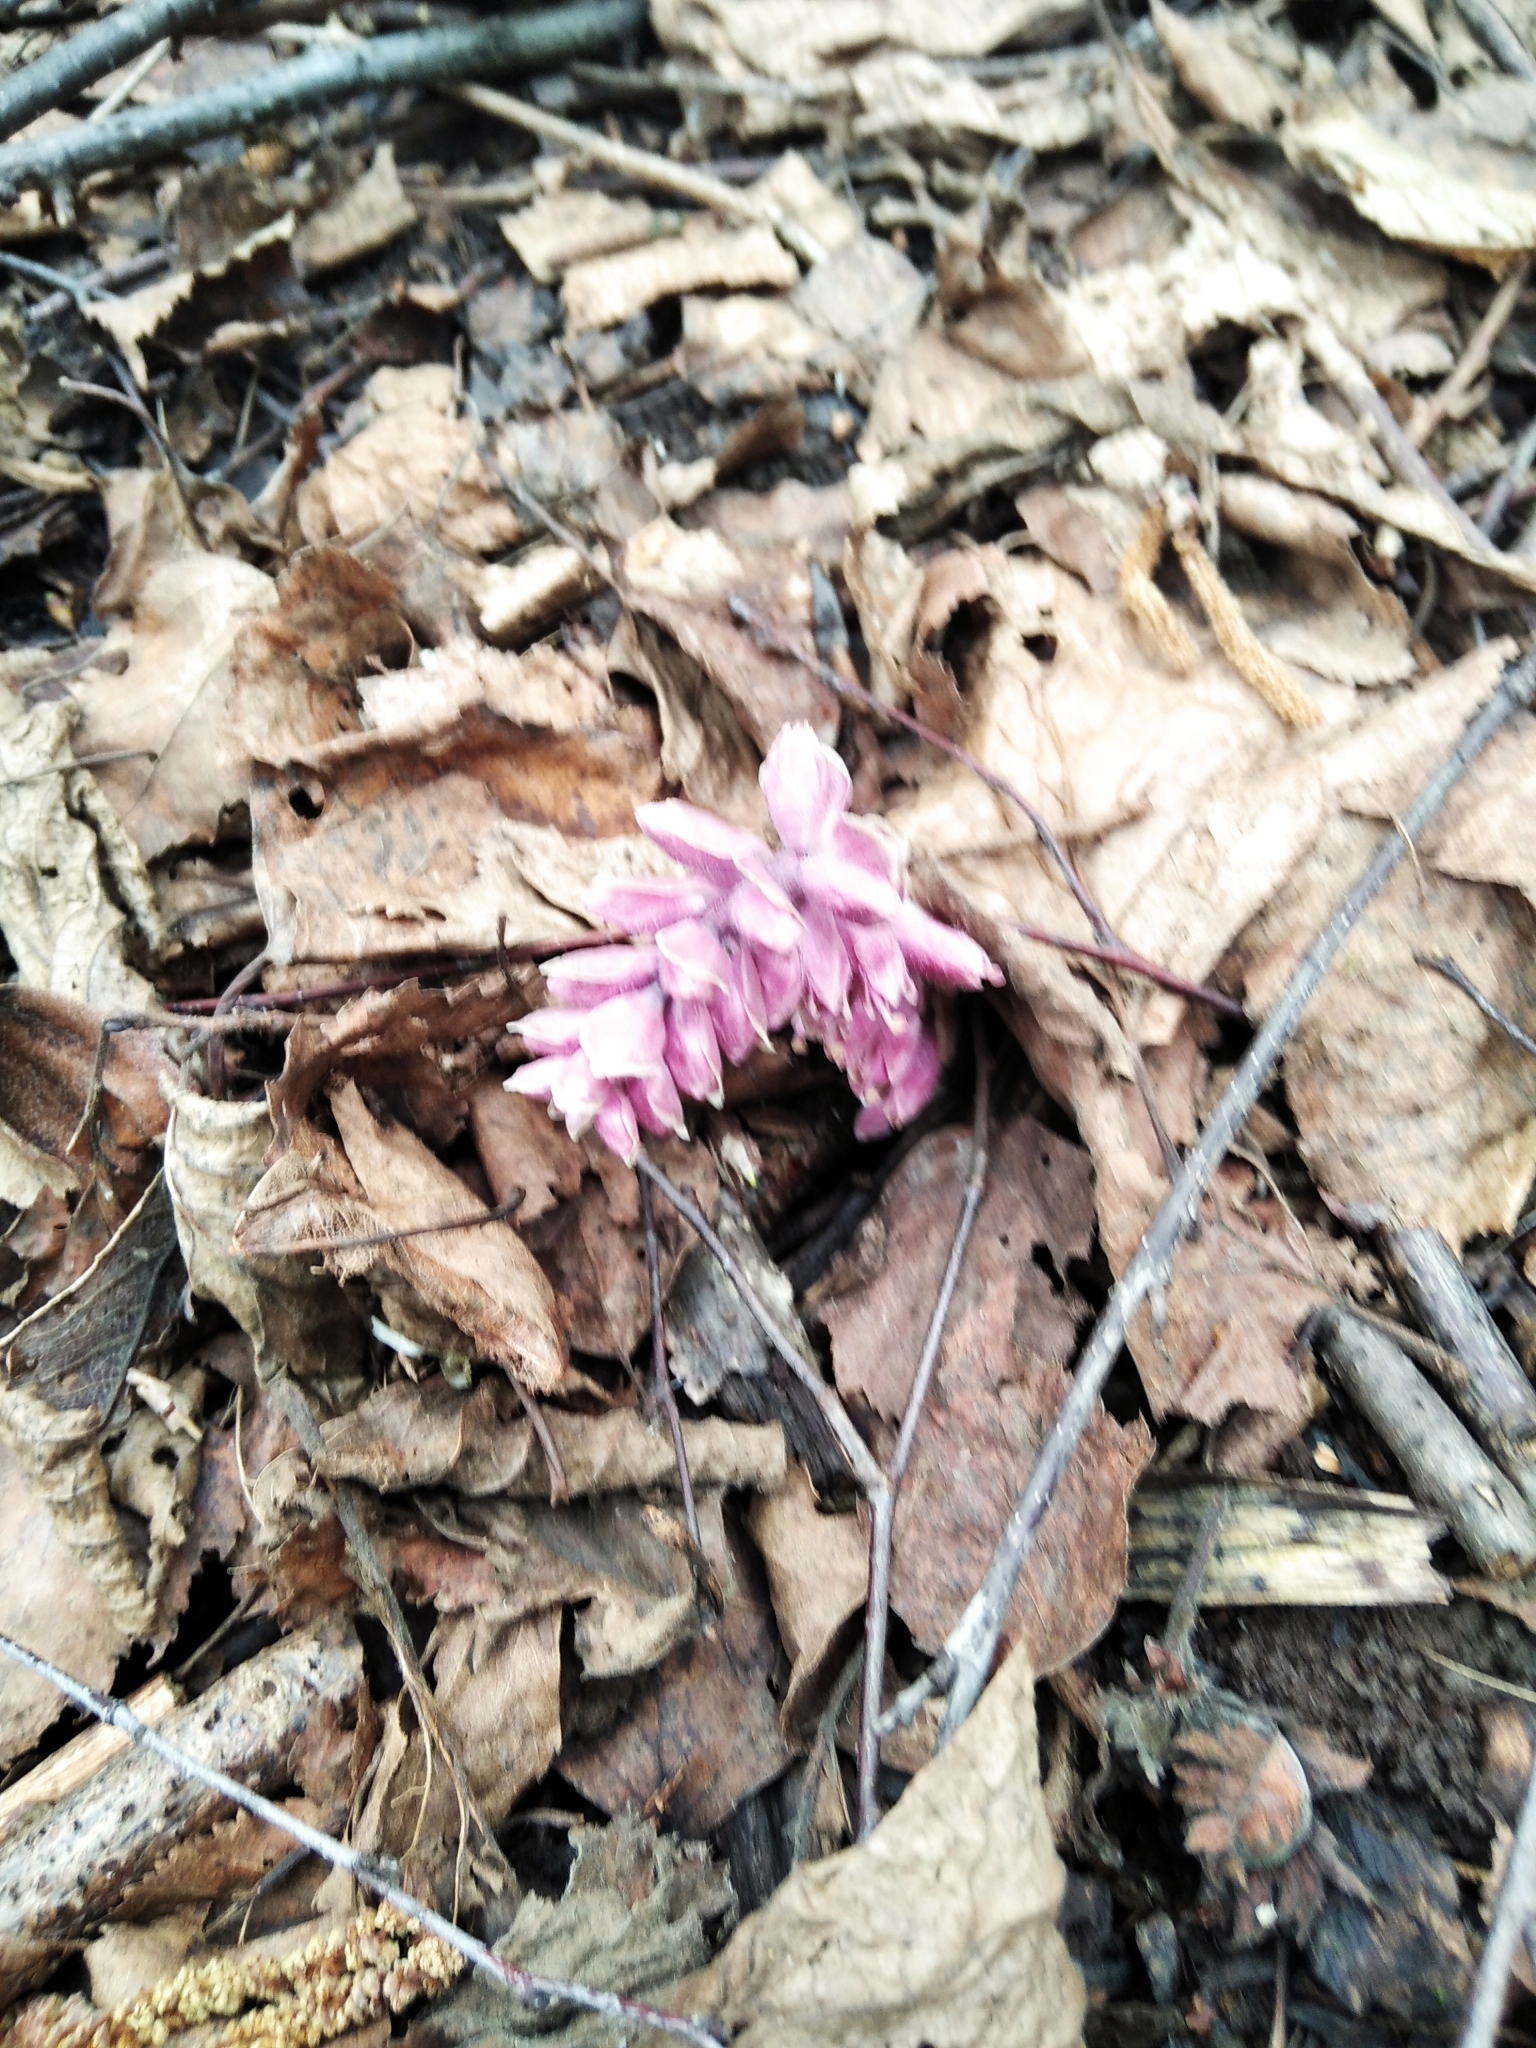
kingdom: Plantae
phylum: Tracheophyta
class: Magnoliopsida
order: Lamiales
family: Orobanchaceae
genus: Lathraea
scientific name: Lathraea squamaria
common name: Toothwort
